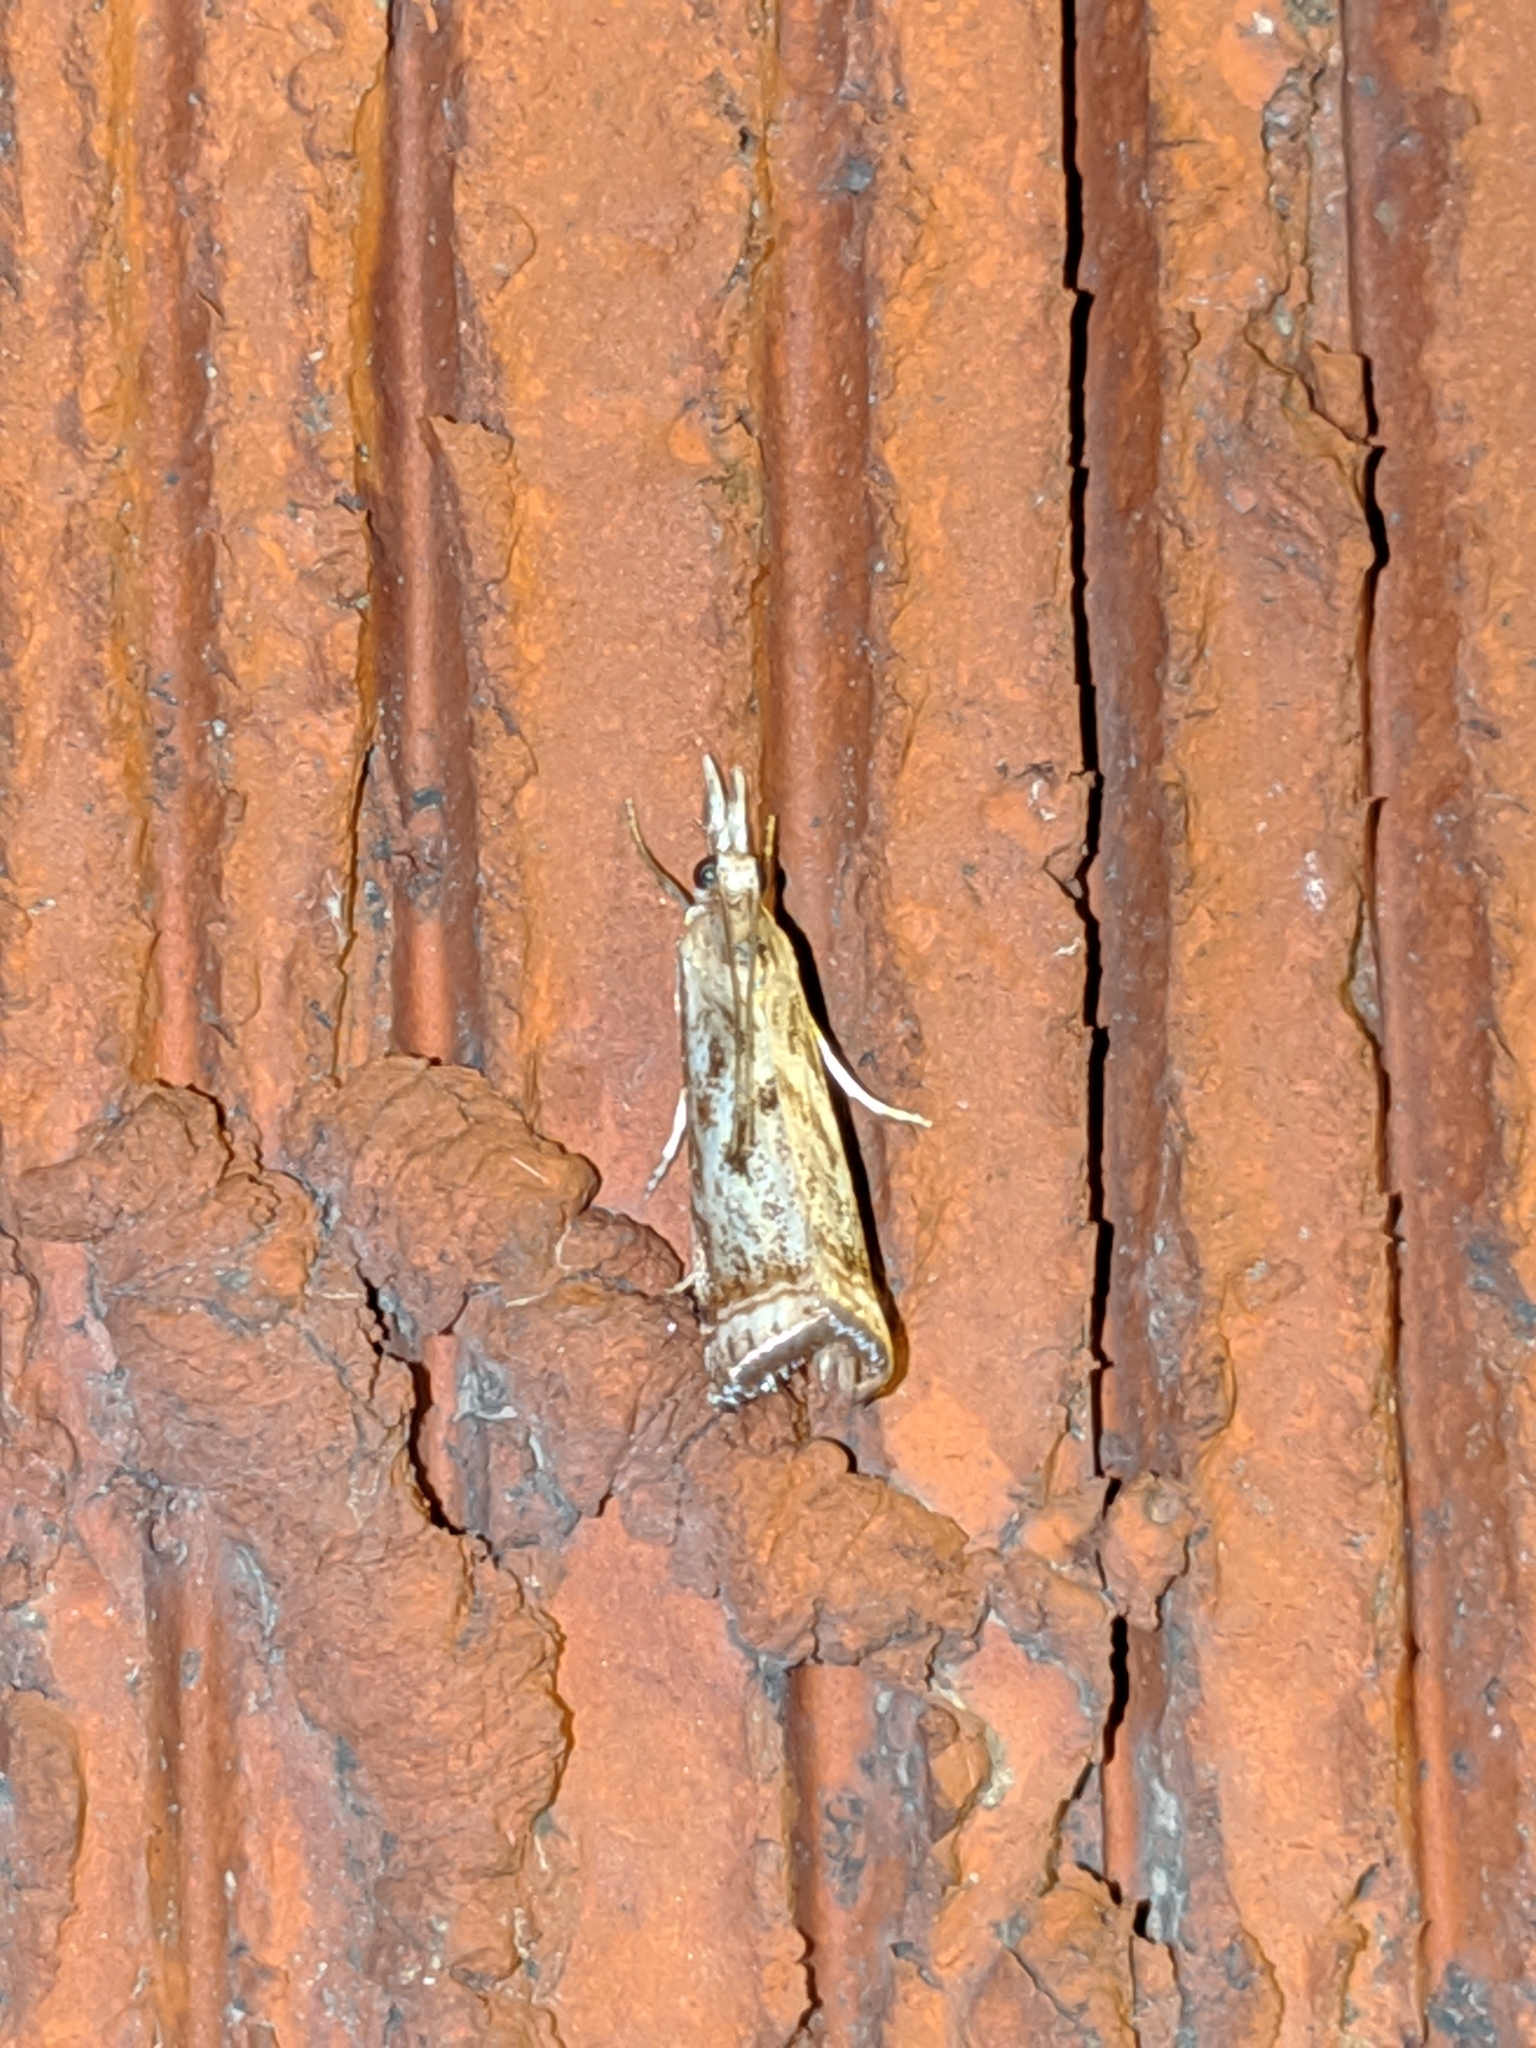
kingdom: Animalia
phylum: Arthropoda
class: Insecta
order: Lepidoptera
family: Crambidae
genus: Microcrambus
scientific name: Microcrambus elegans
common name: Elegant grass-veneer
